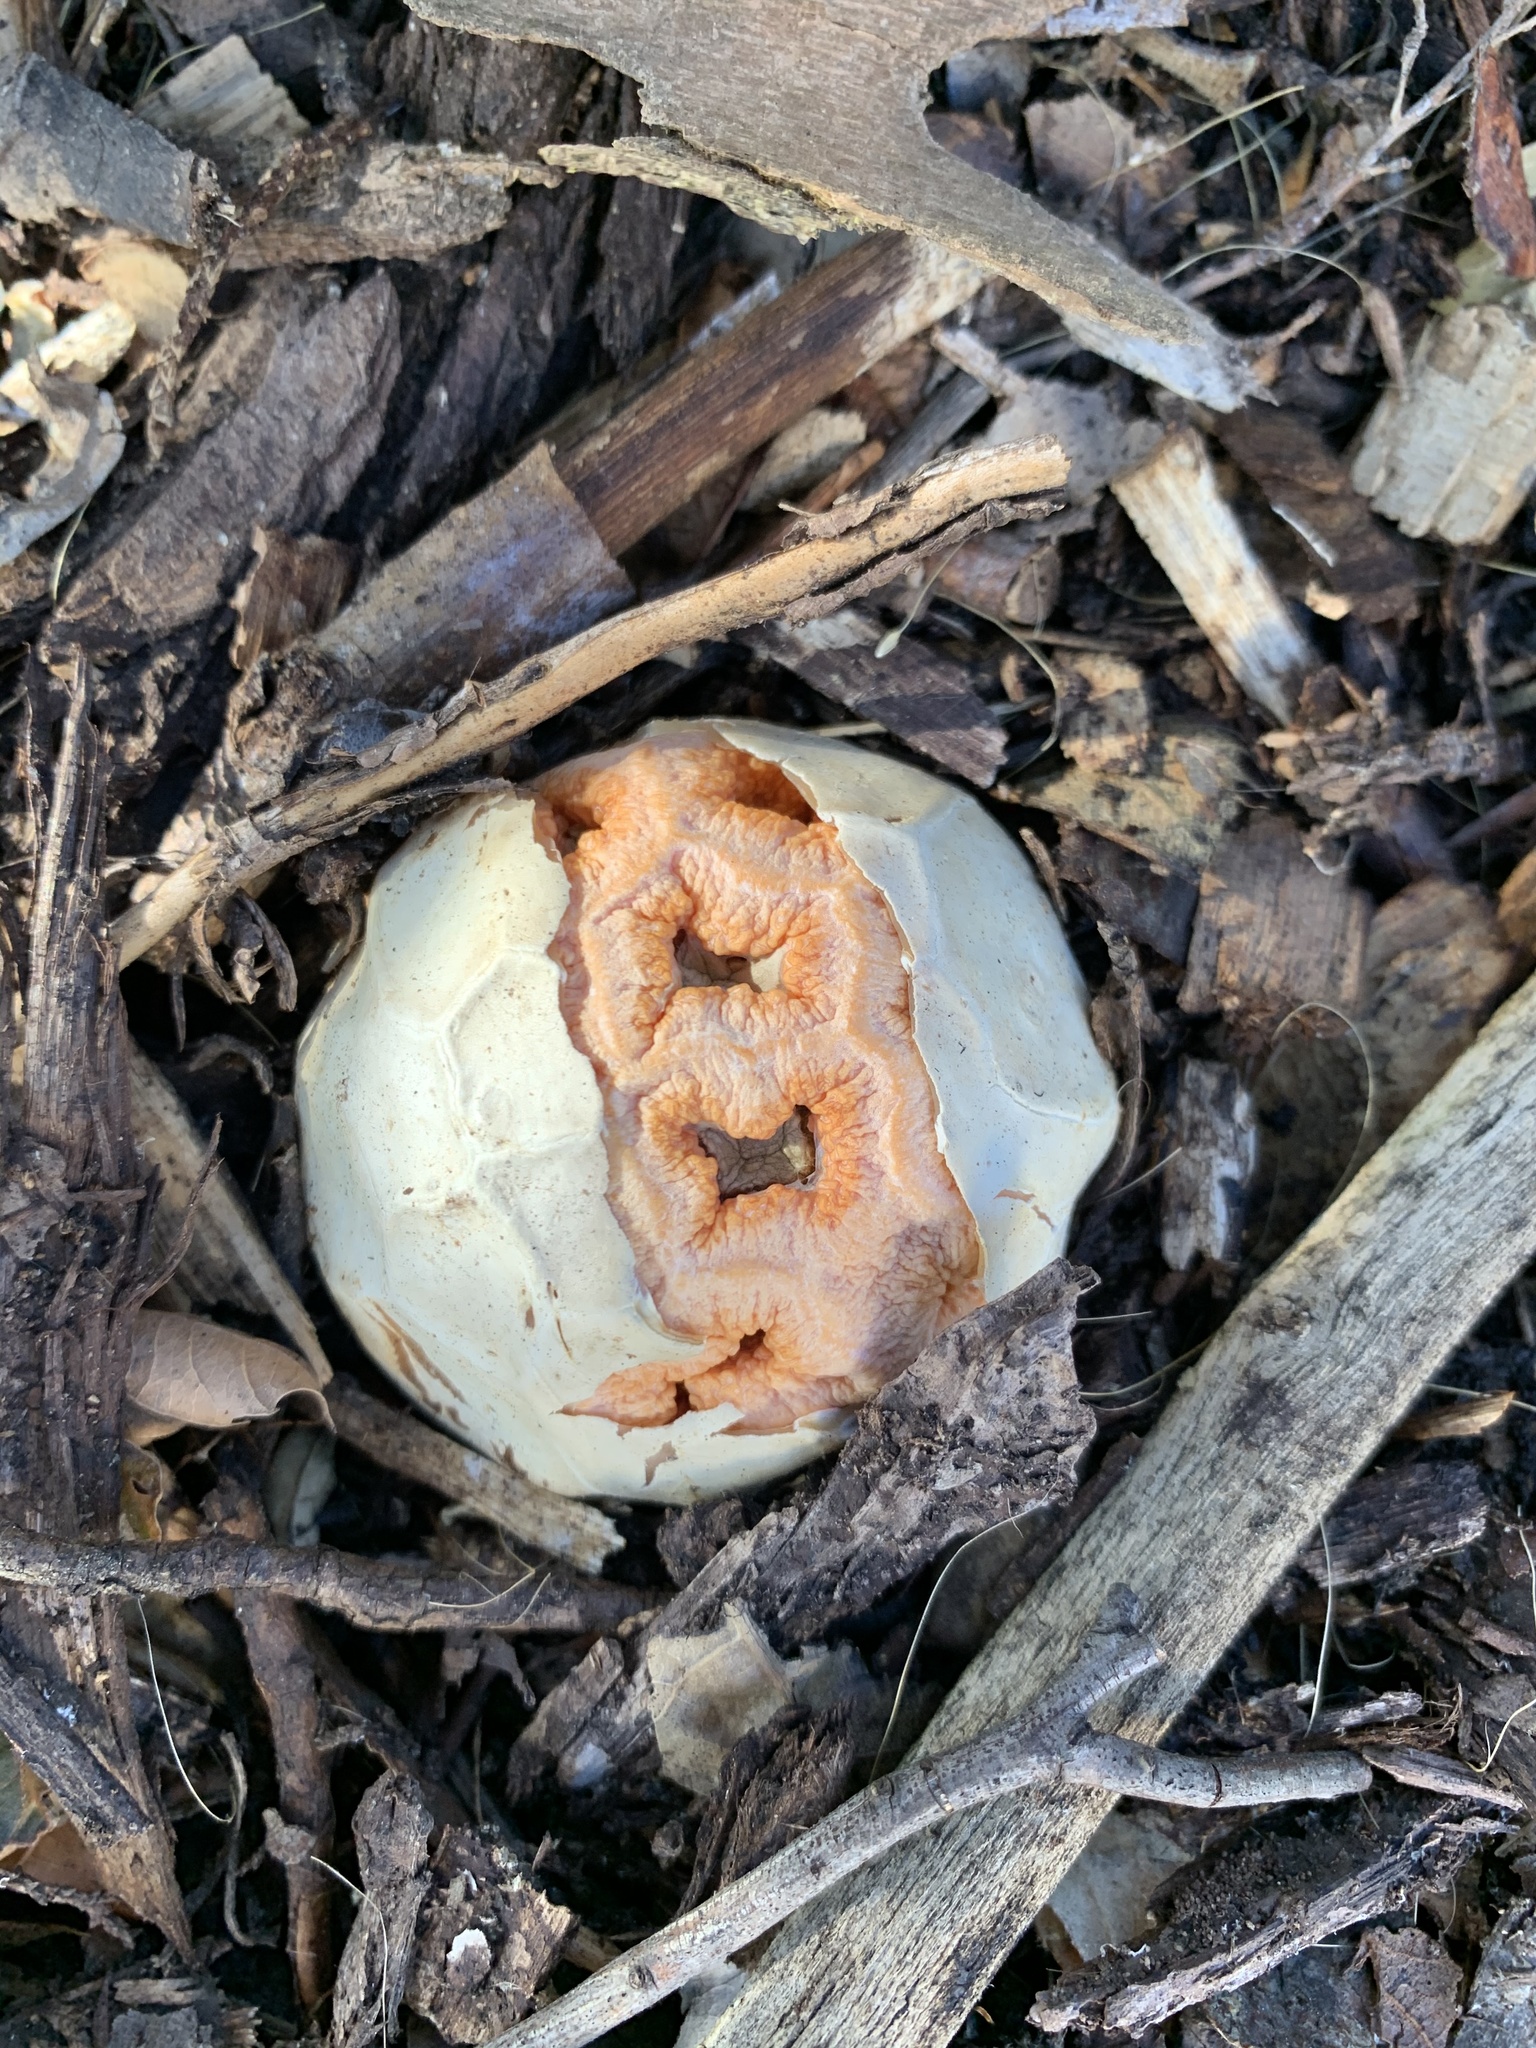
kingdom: Fungi
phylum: Basidiomycota
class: Agaricomycetes
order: Phallales
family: Phallaceae
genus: Clathrus
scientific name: Clathrus ruber
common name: Red cage
